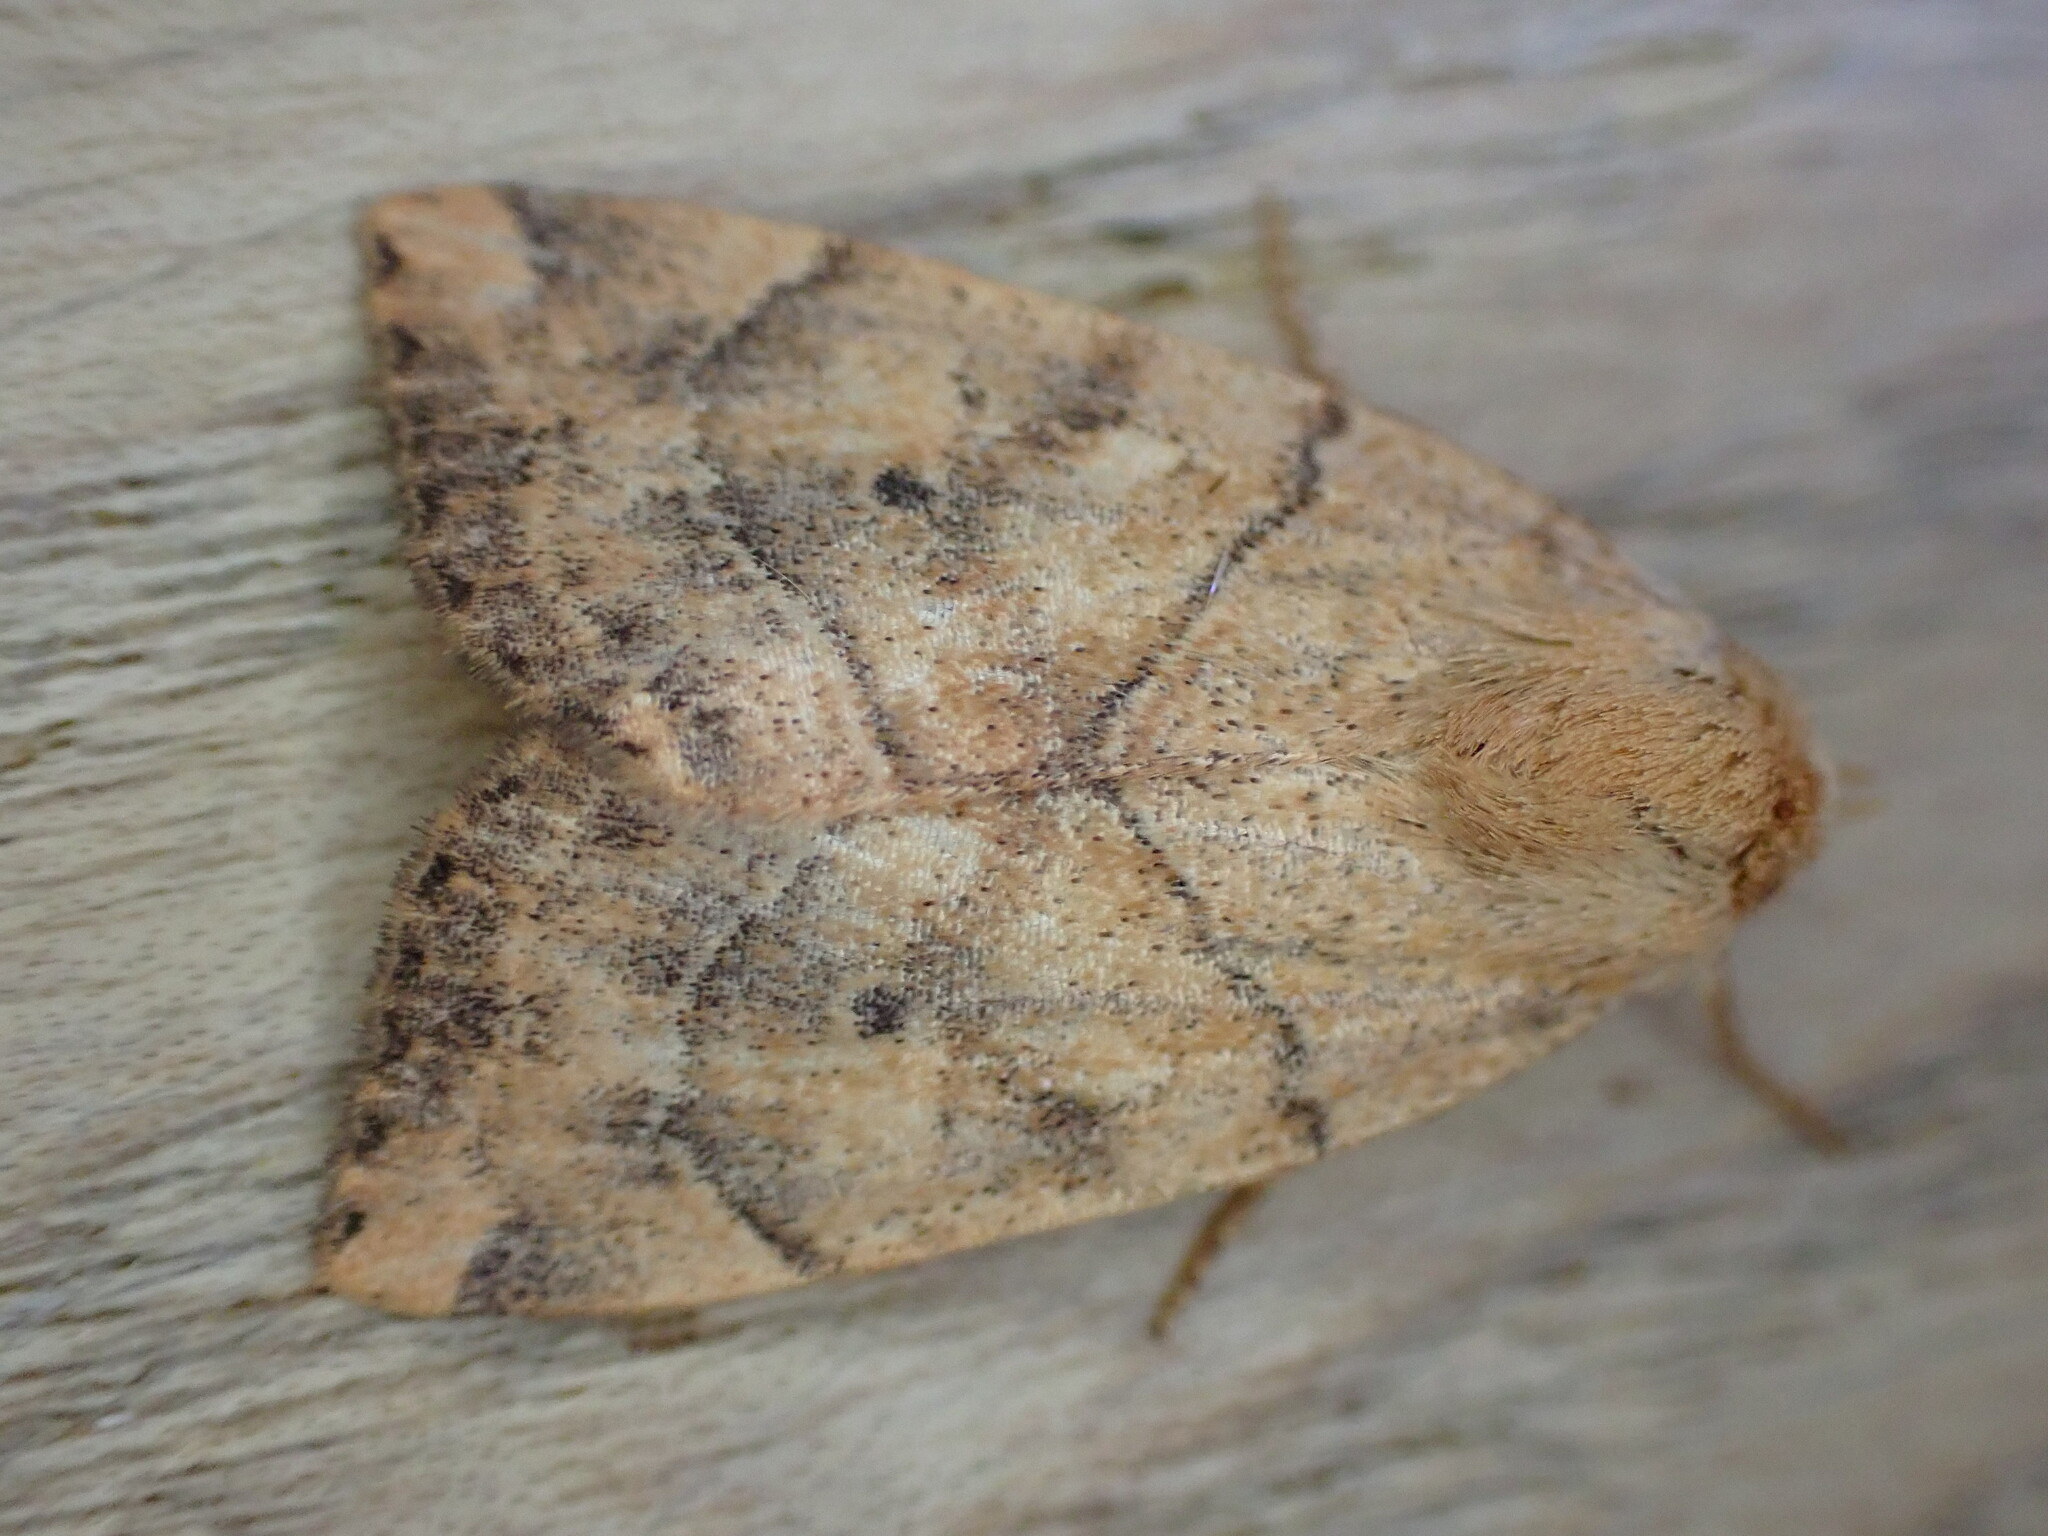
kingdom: Animalia
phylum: Arthropoda
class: Insecta
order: Lepidoptera
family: Noctuidae
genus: Cosmia
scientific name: Cosmia trapezina
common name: Dun-bar
